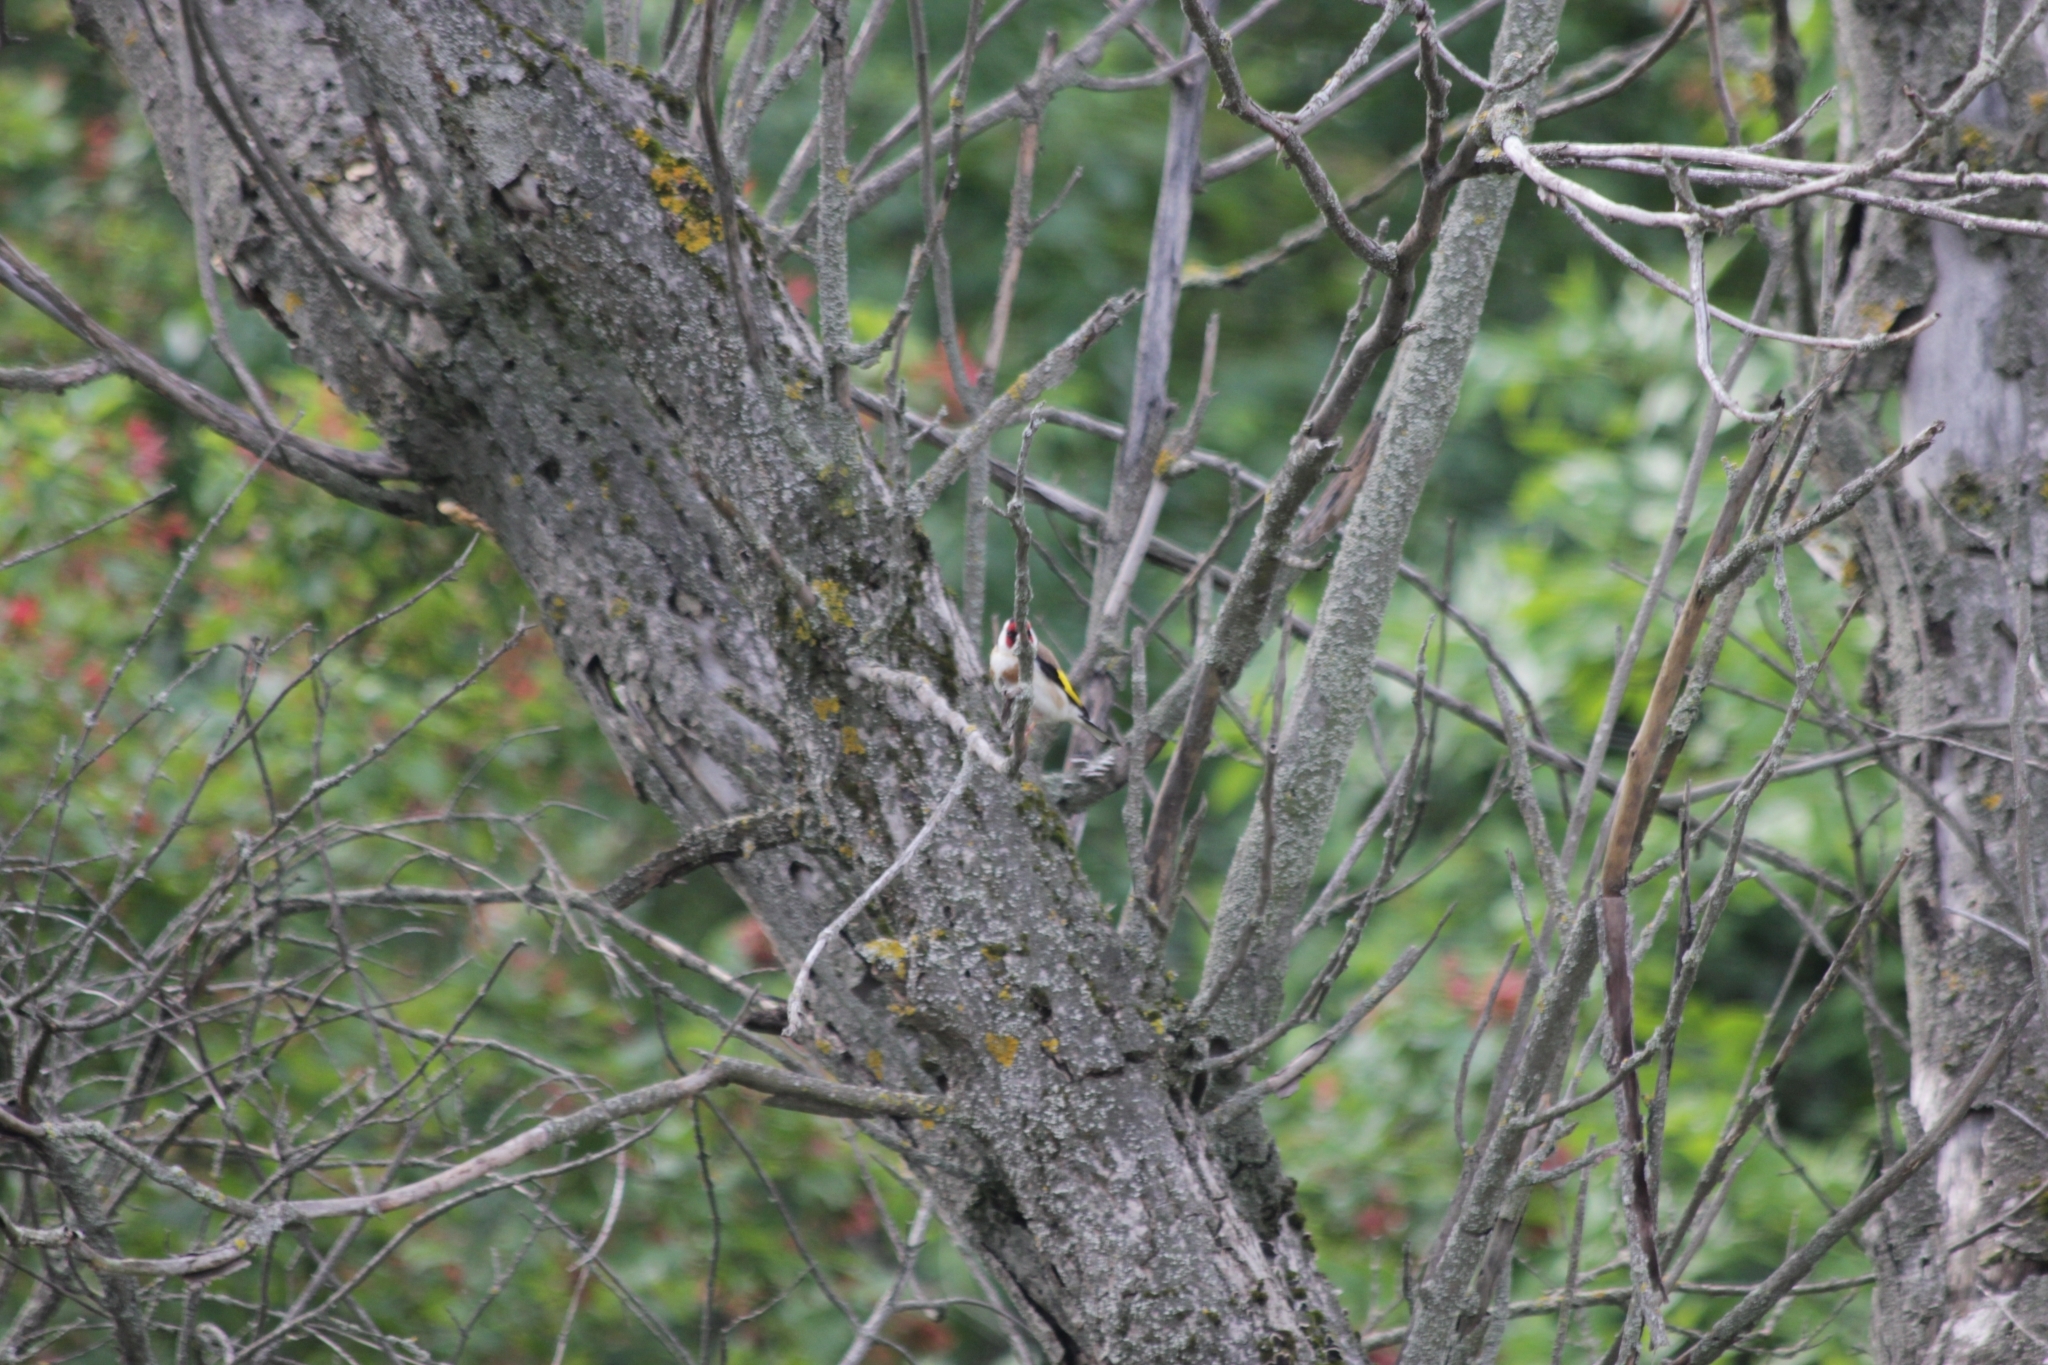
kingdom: Animalia
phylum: Chordata
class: Aves
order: Passeriformes
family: Fringillidae
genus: Carduelis
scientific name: Carduelis carduelis
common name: European goldfinch
